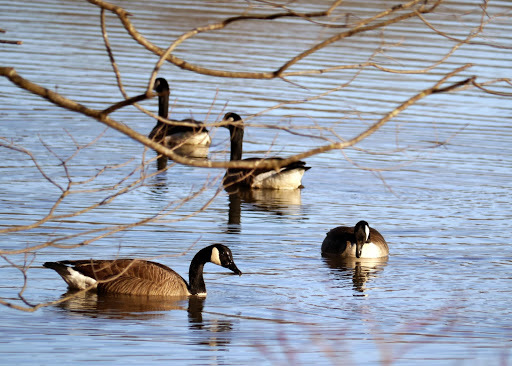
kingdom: Animalia
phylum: Chordata
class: Aves
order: Anseriformes
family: Anatidae
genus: Branta
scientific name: Branta canadensis
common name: Canada goose
